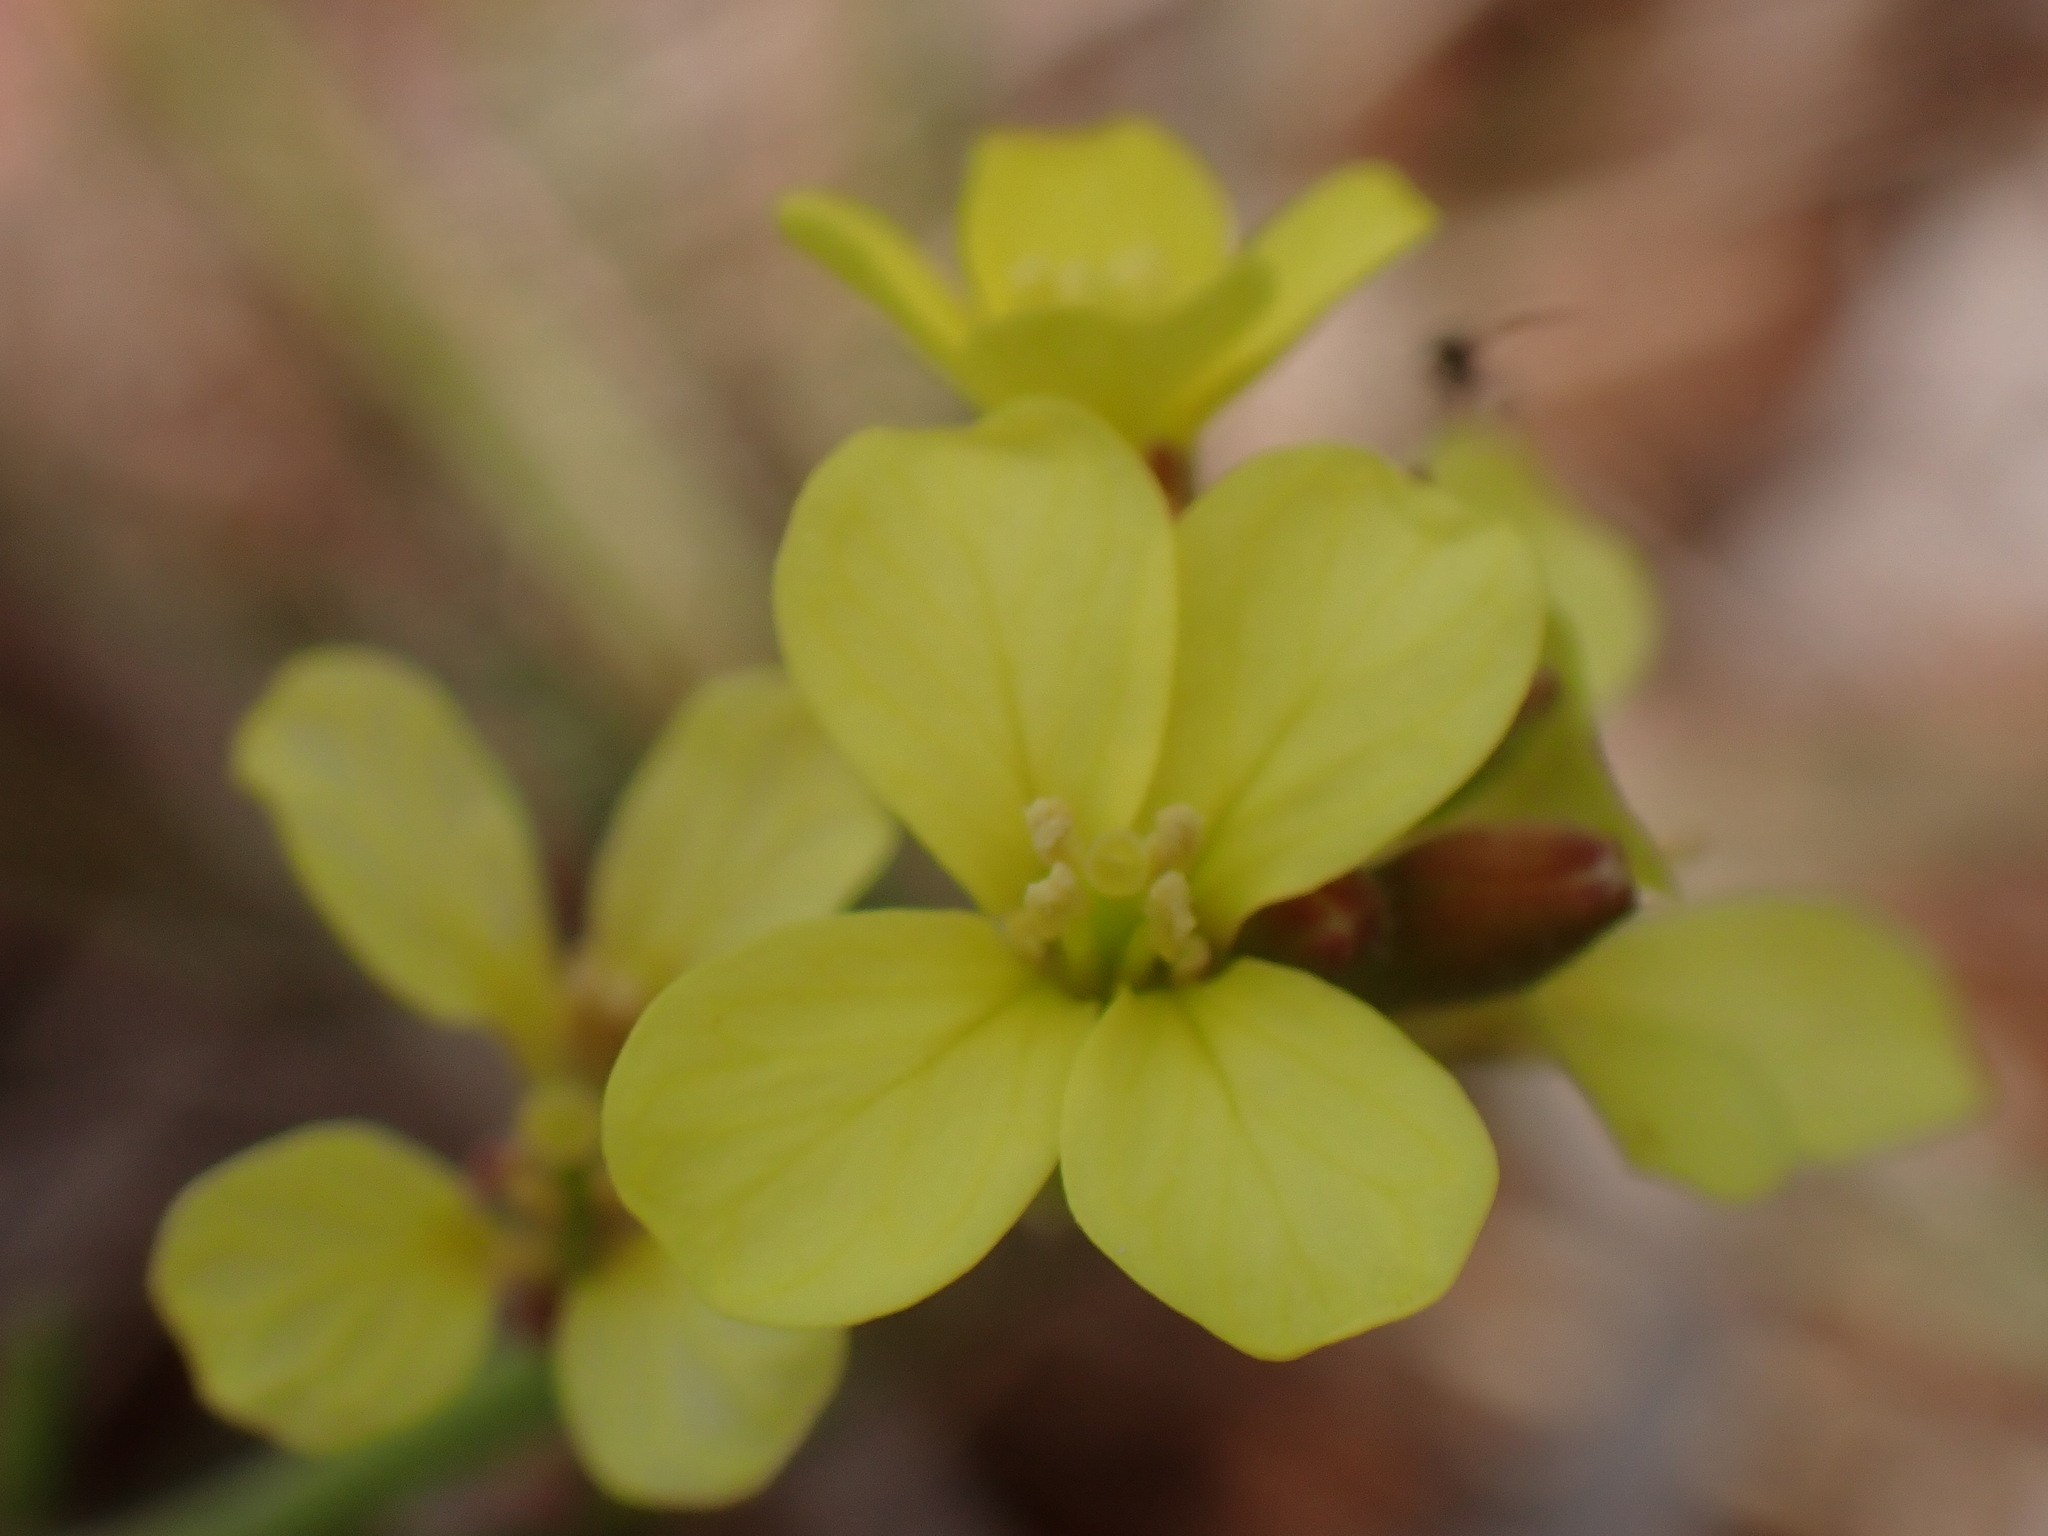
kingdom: Plantae
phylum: Tracheophyta
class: Magnoliopsida
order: Brassicales
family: Brassicaceae
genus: Rapistrum
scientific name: Rapistrum rugosum
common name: Annual bastardcabbage
